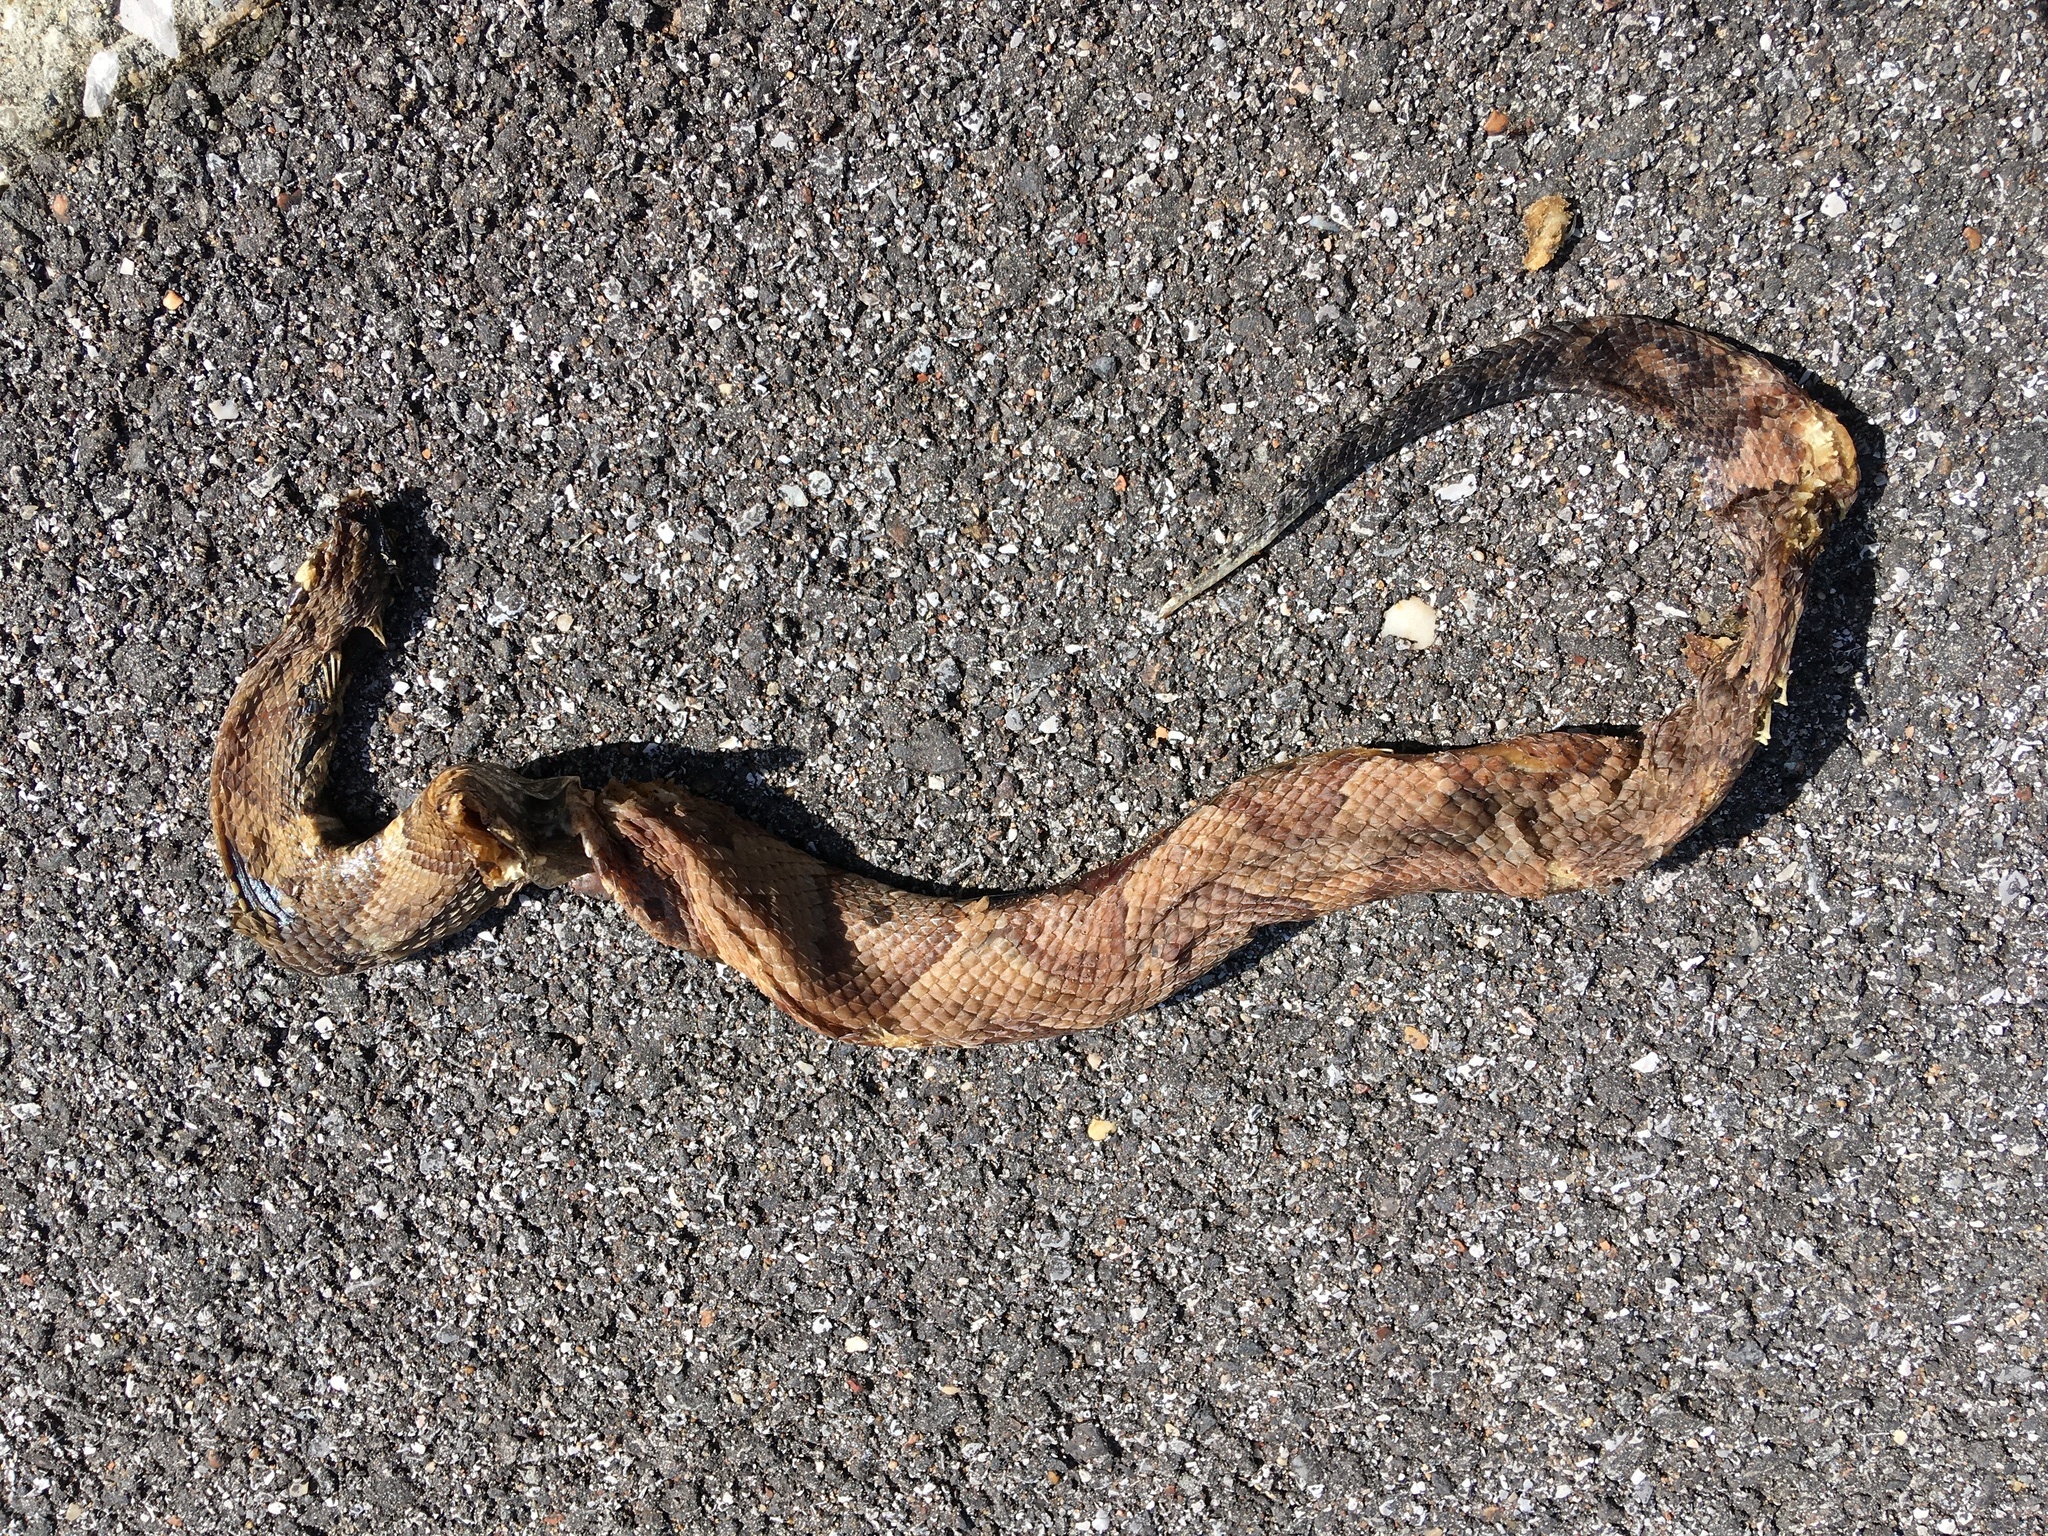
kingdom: Animalia
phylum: Chordata
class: Squamata
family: Viperidae
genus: Agkistrodon
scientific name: Agkistrodon piscivorus
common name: Cottonmouth
